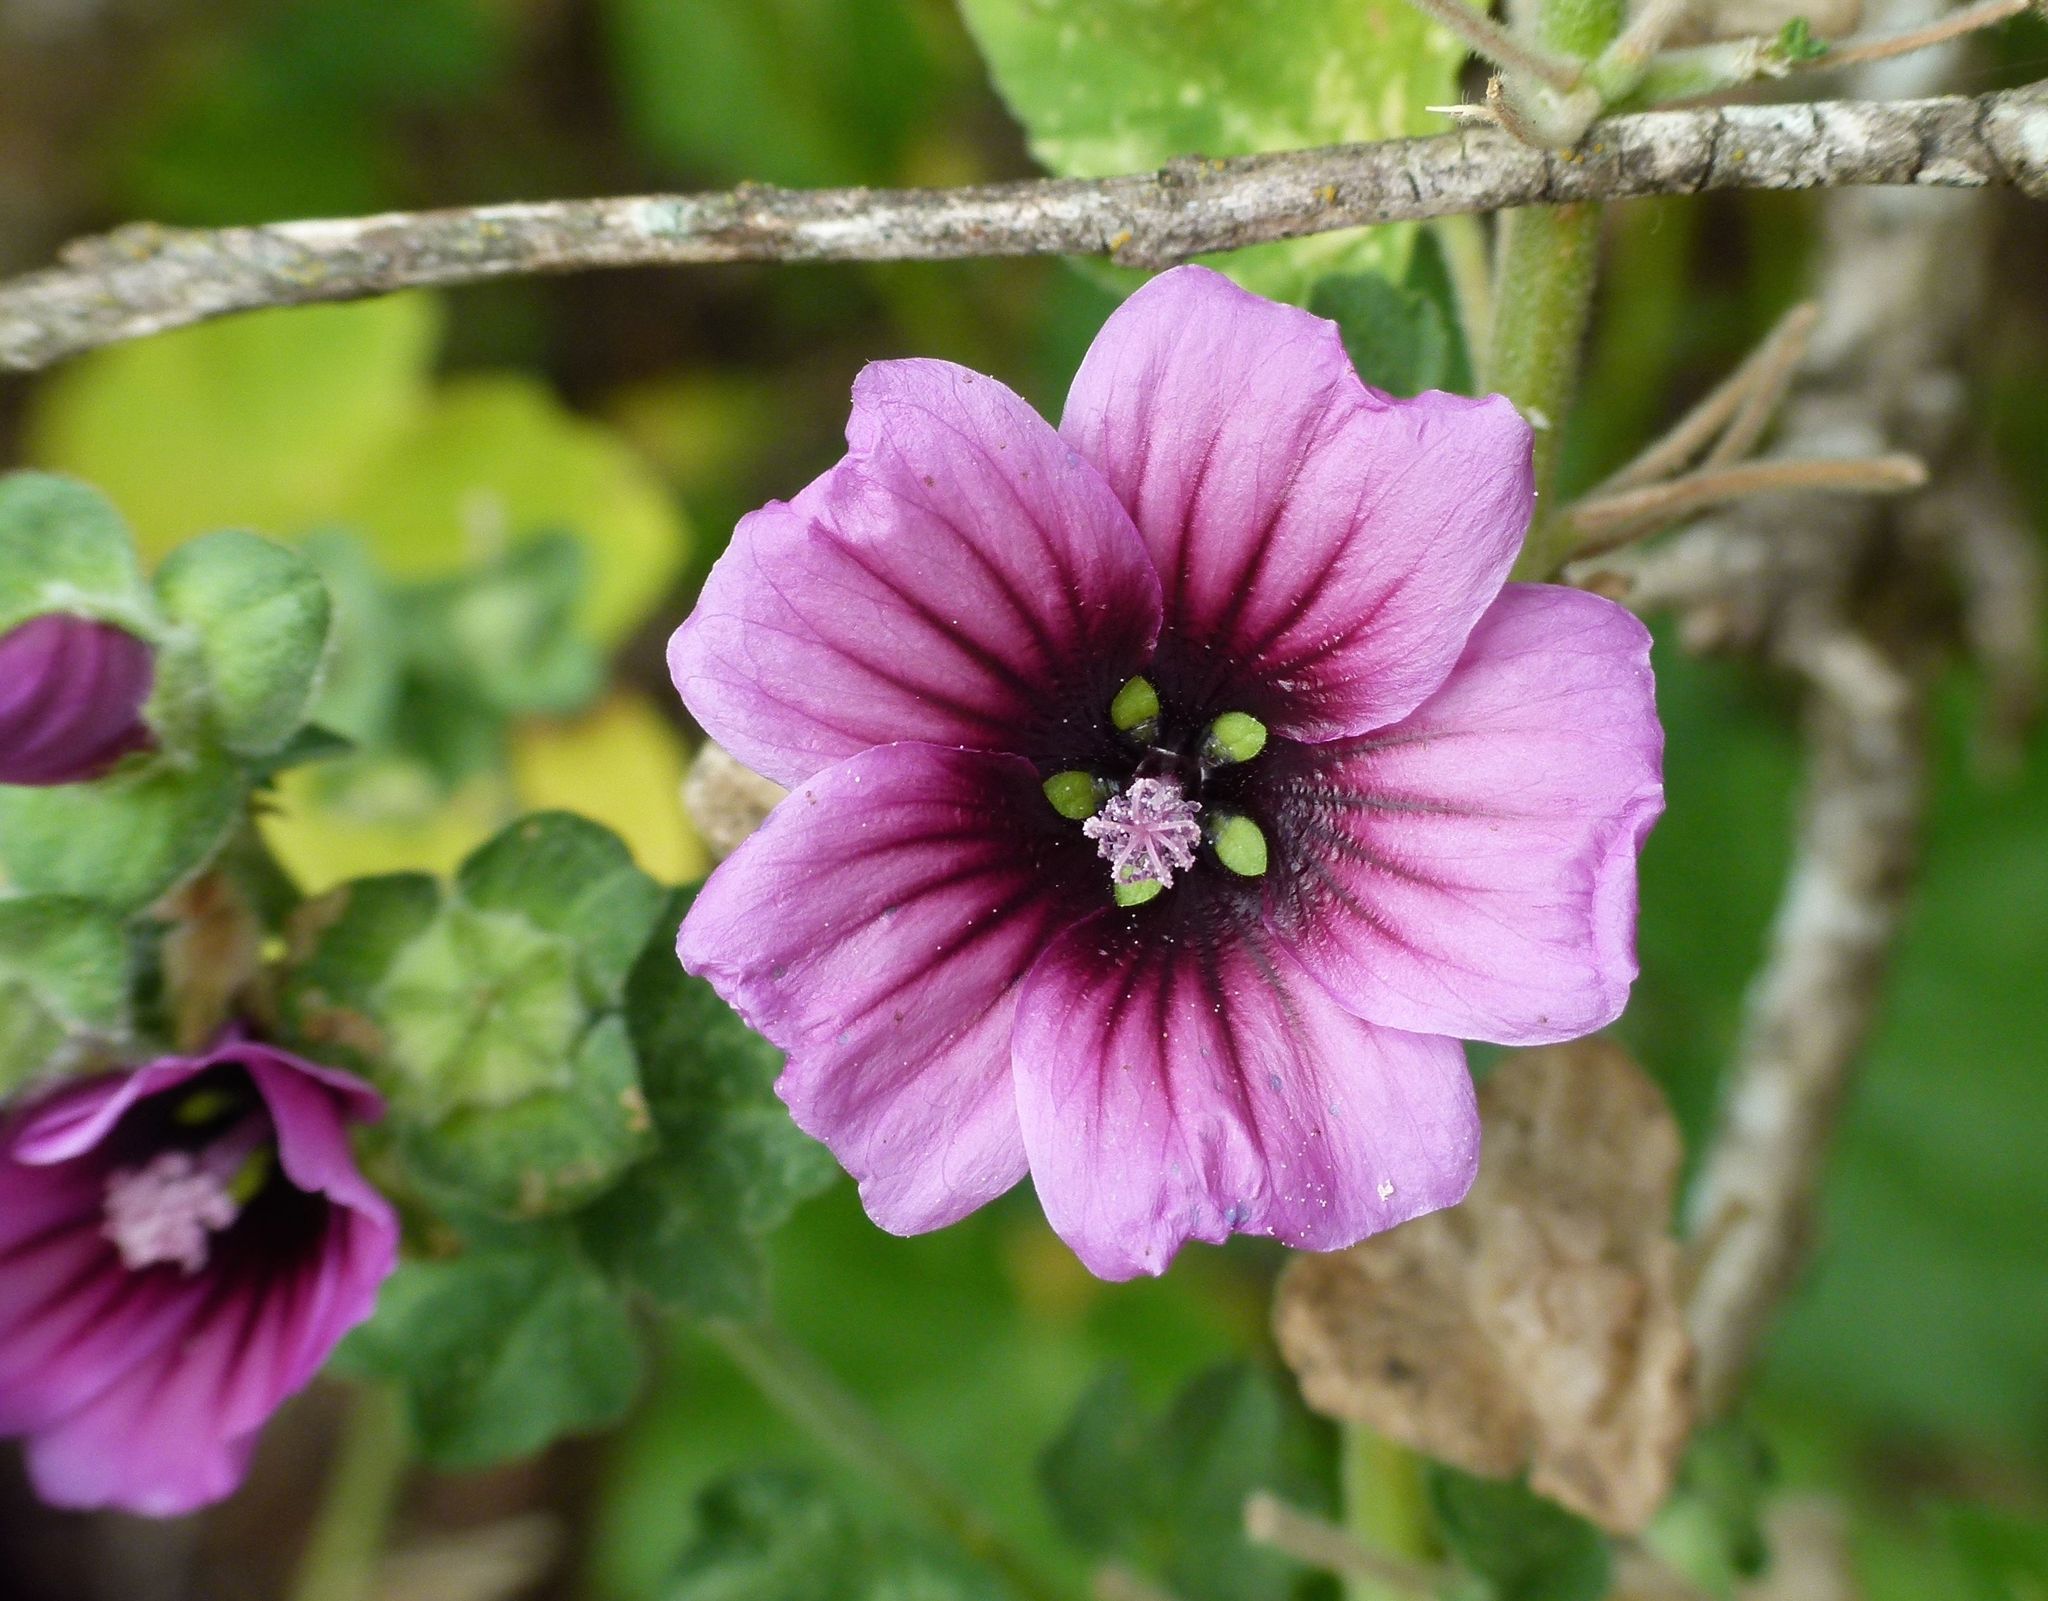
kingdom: Plantae
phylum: Tracheophyta
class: Magnoliopsida
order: Malvales
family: Malvaceae
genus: Malva
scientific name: Malva arborea
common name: Tree mallow
